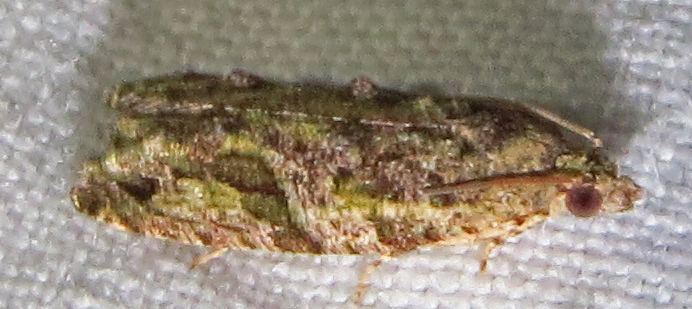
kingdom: Animalia
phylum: Arthropoda
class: Insecta
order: Lepidoptera
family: Tortricidae
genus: Proteoteras
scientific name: Proteoteras aesculana
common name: Maple twig borer moth
